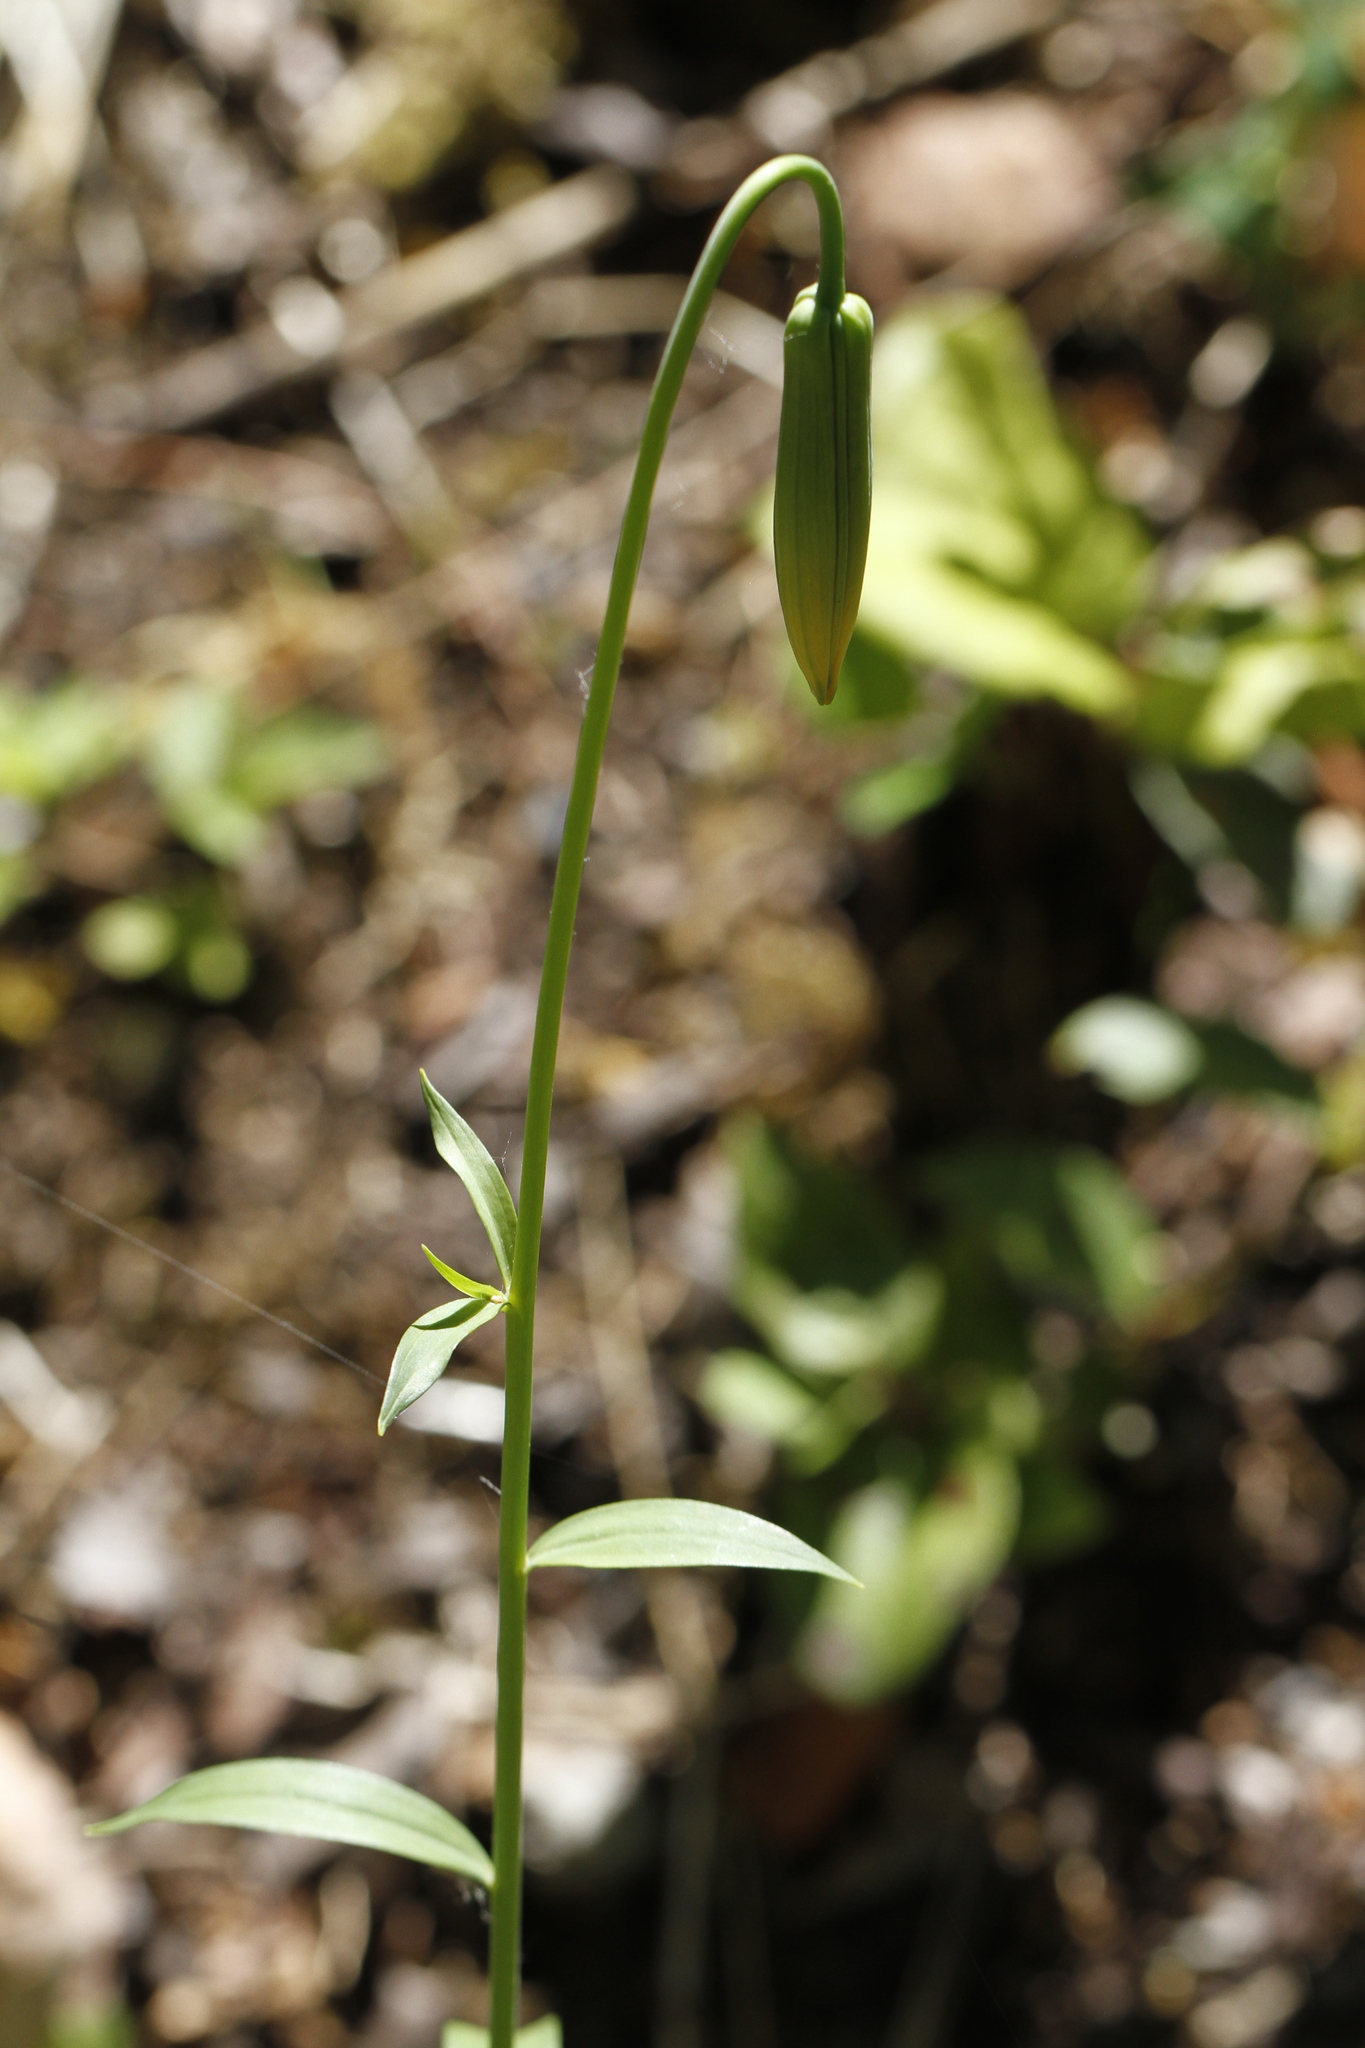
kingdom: Plantae
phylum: Tracheophyta
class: Liliopsida
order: Liliales
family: Liliaceae
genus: Lilium
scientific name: Lilium columbianum
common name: Columbia lily
